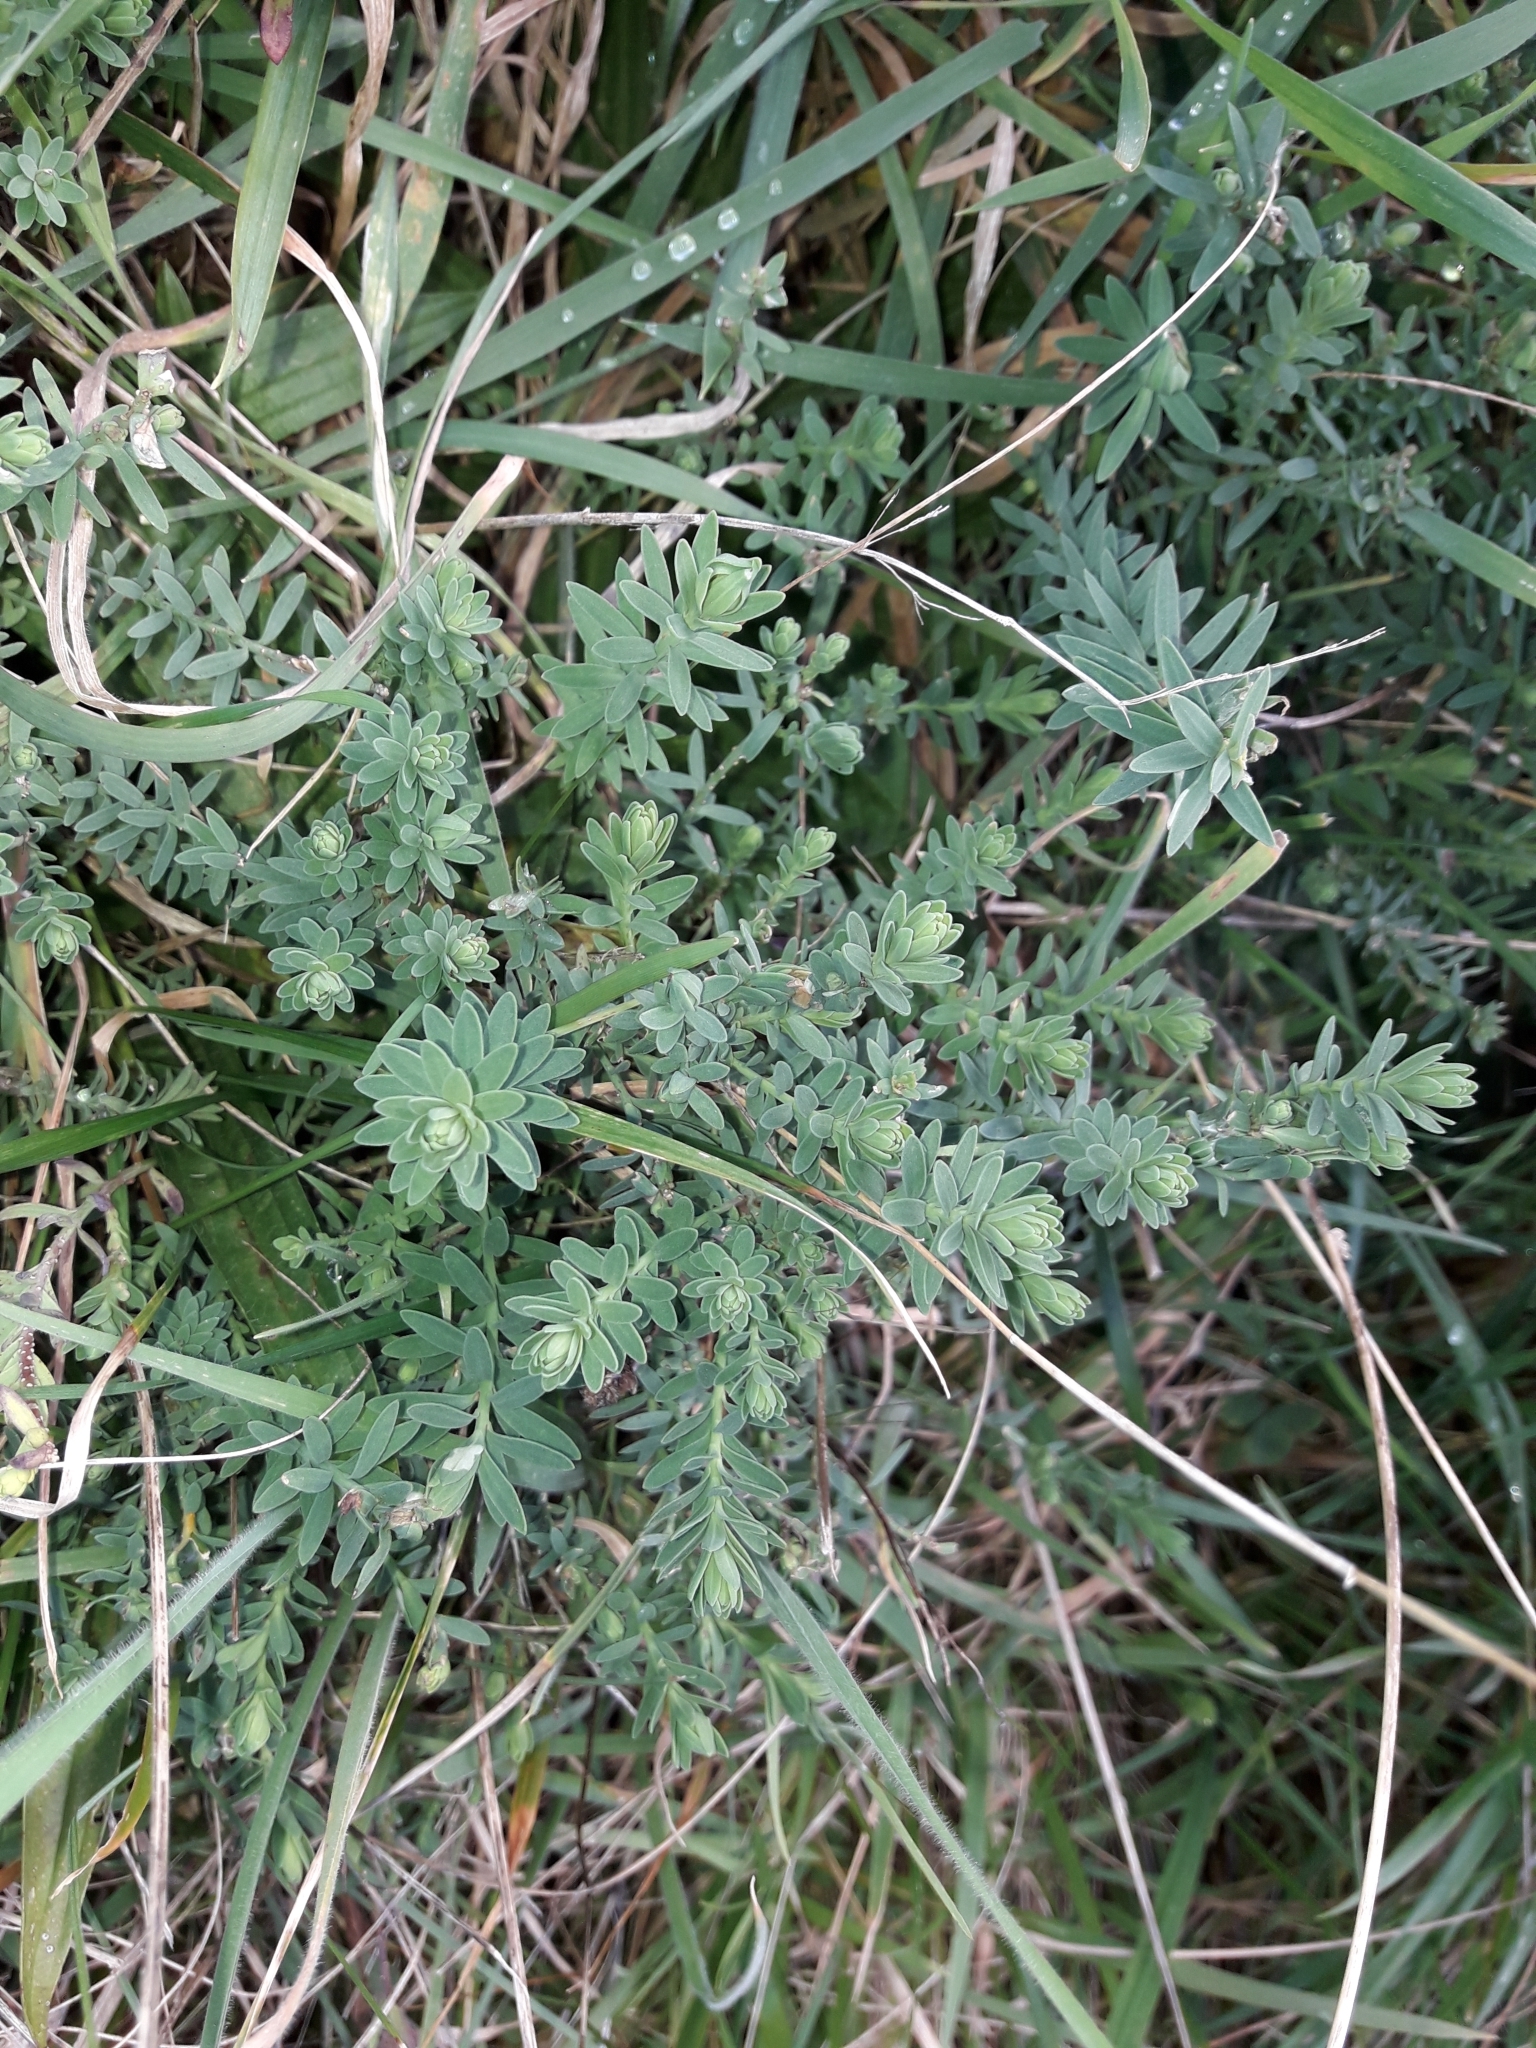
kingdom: Plantae
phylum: Tracheophyta
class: Magnoliopsida
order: Malpighiales
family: Linaceae
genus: Linum
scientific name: Linum monogynum
